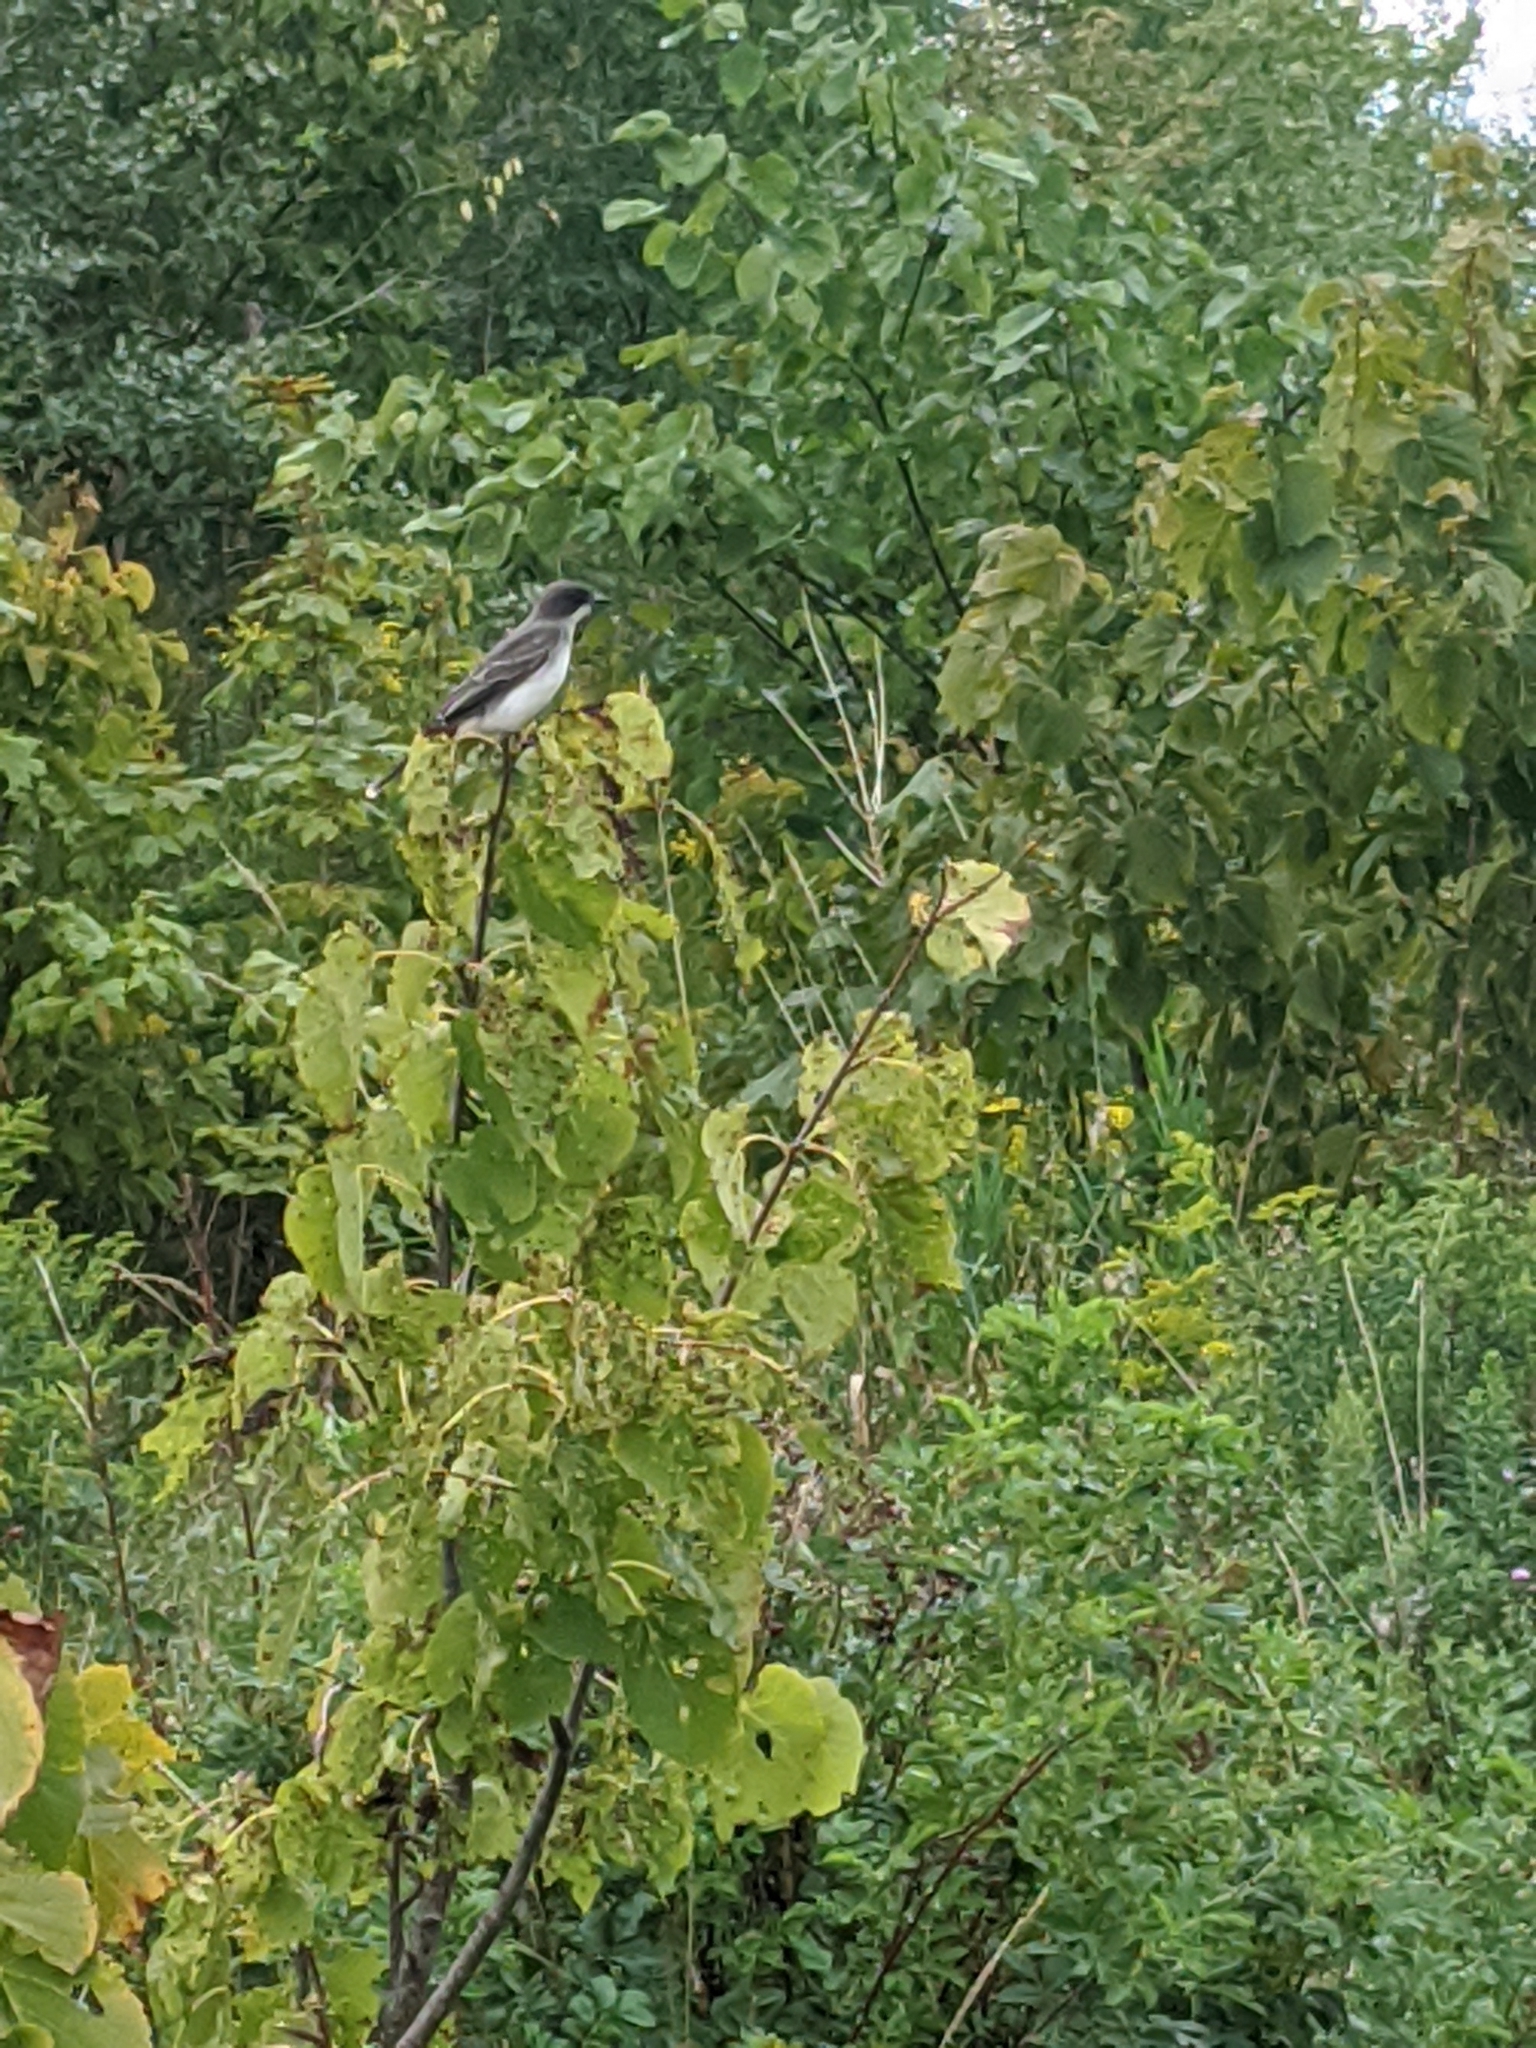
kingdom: Animalia
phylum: Chordata
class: Aves
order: Passeriformes
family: Tyrannidae
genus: Tyrannus
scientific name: Tyrannus tyrannus
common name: Eastern kingbird
